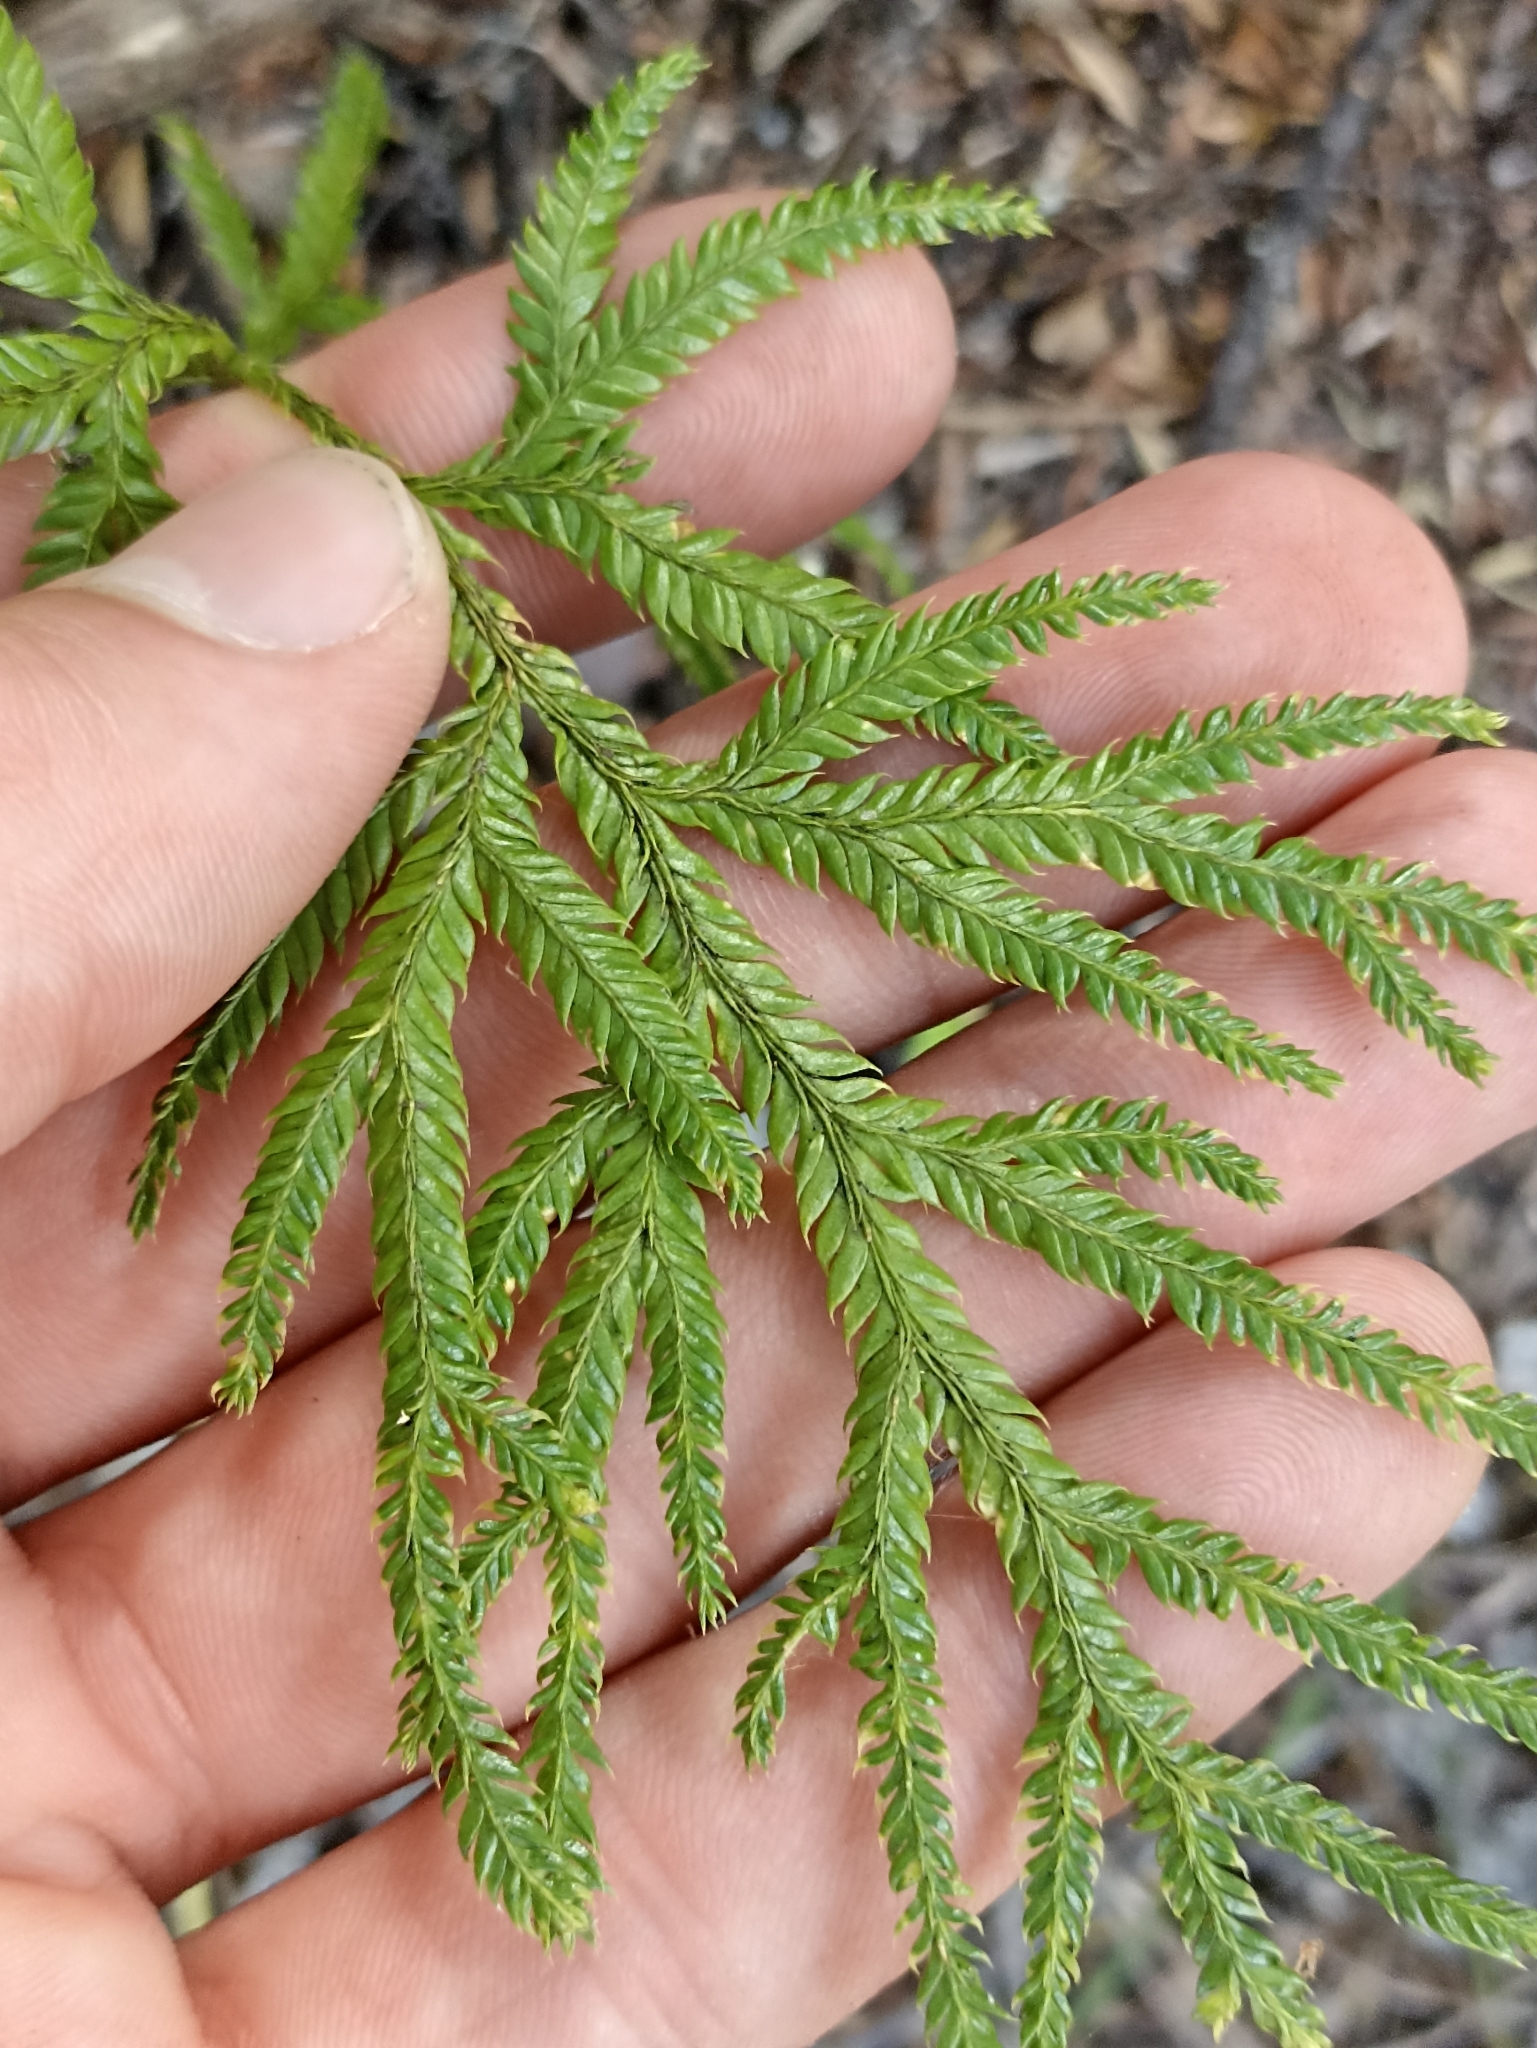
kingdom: Plantae
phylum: Tracheophyta
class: Lycopodiopsida
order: Lycopodiales
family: Lycopodiaceae
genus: Lycopodium
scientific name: Lycopodium volubile
